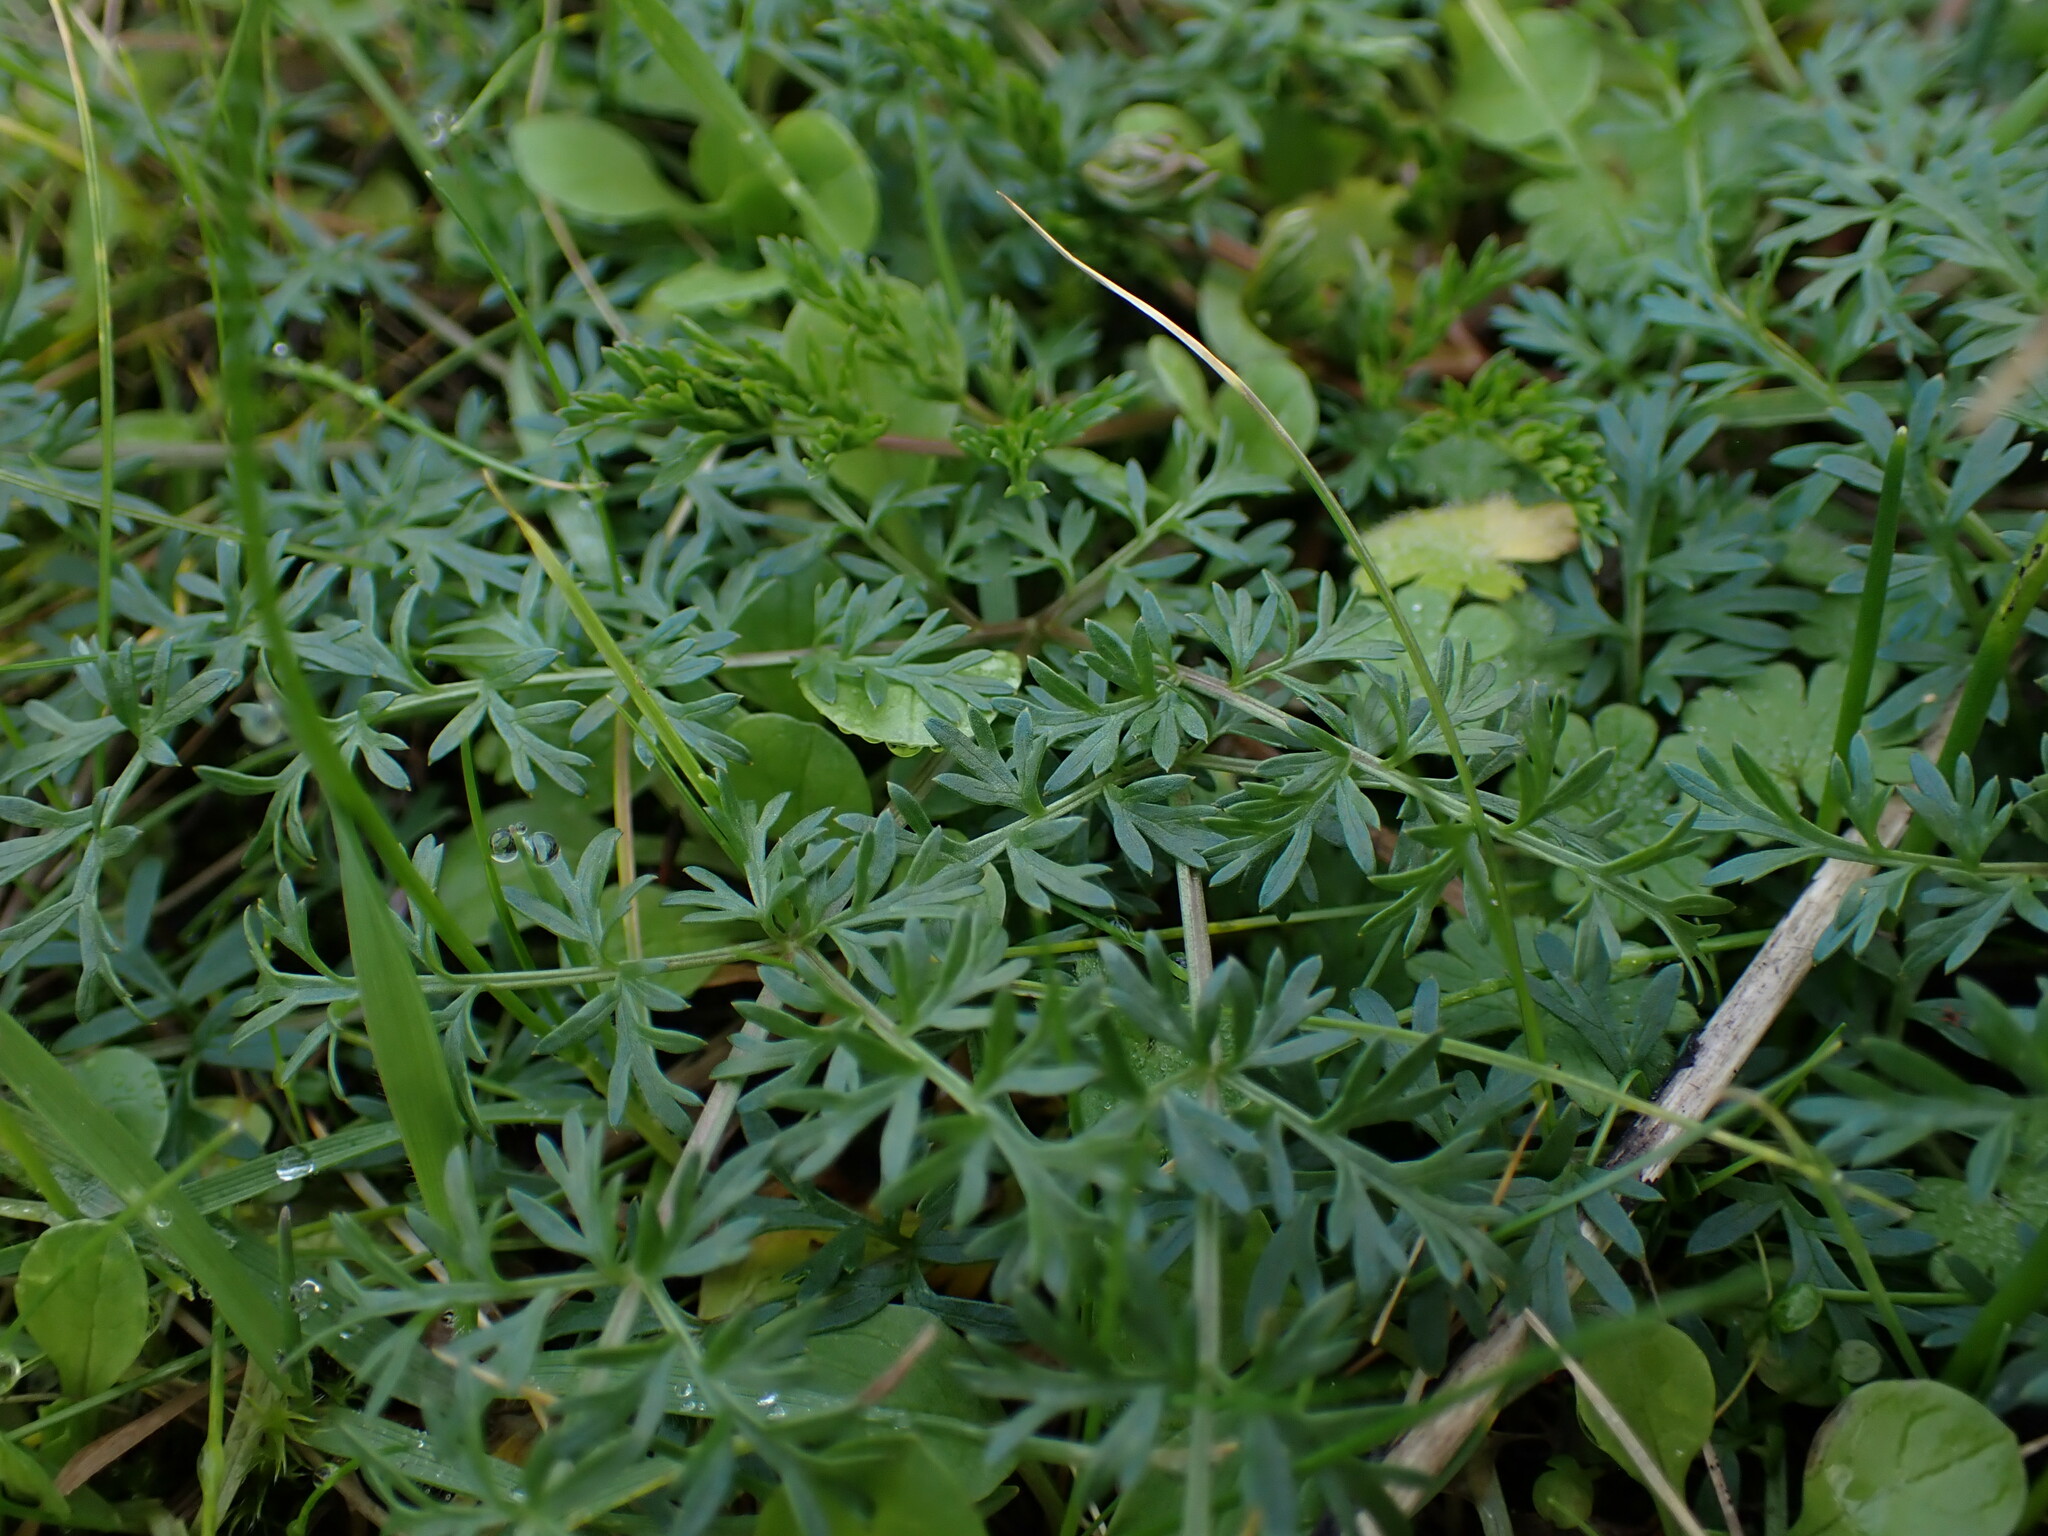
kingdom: Plantae
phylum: Tracheophyta
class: Magnoliopsida
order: Apiales
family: Apiaceae
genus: Lomatium
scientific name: Lomatium utriculatum
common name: Fine-leaf desert-parsley
